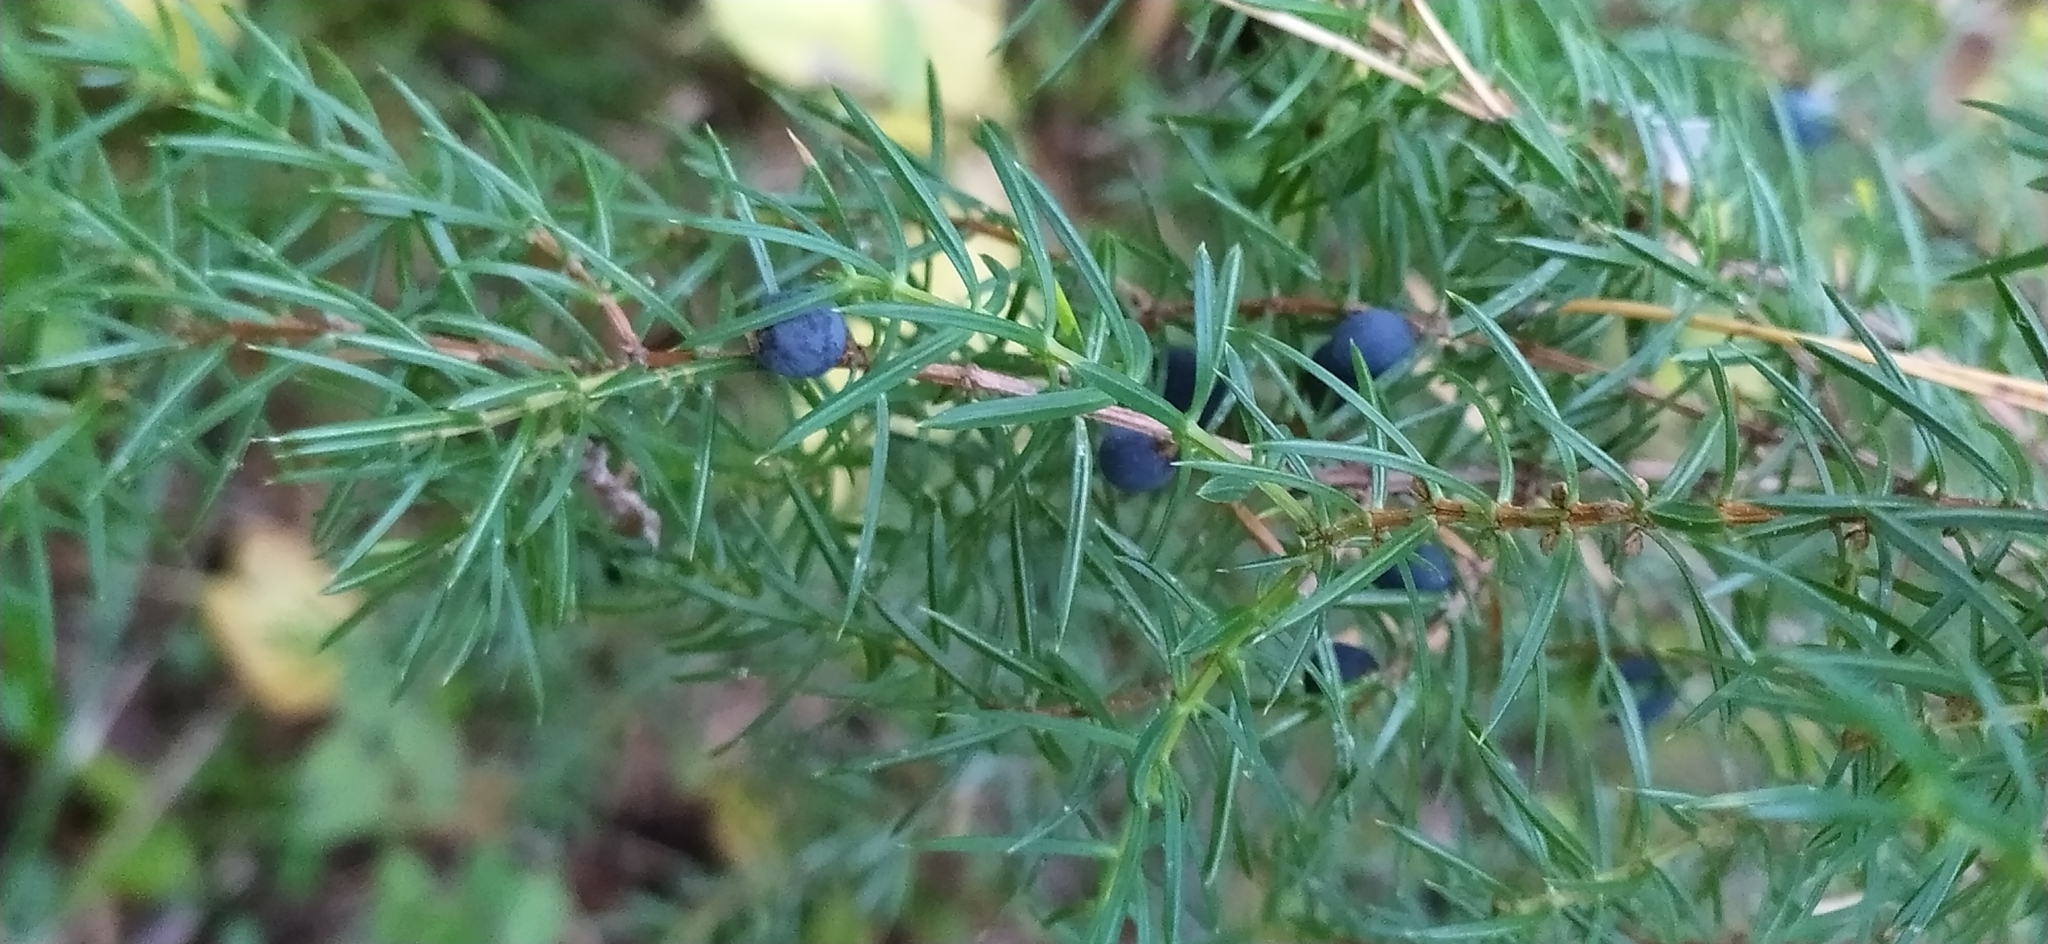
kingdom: Plantae
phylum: Tracheophyta
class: Pinopsida
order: Pinales
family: Cupressaceae
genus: Juniperus
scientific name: Juniperus communis
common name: Common juniper
